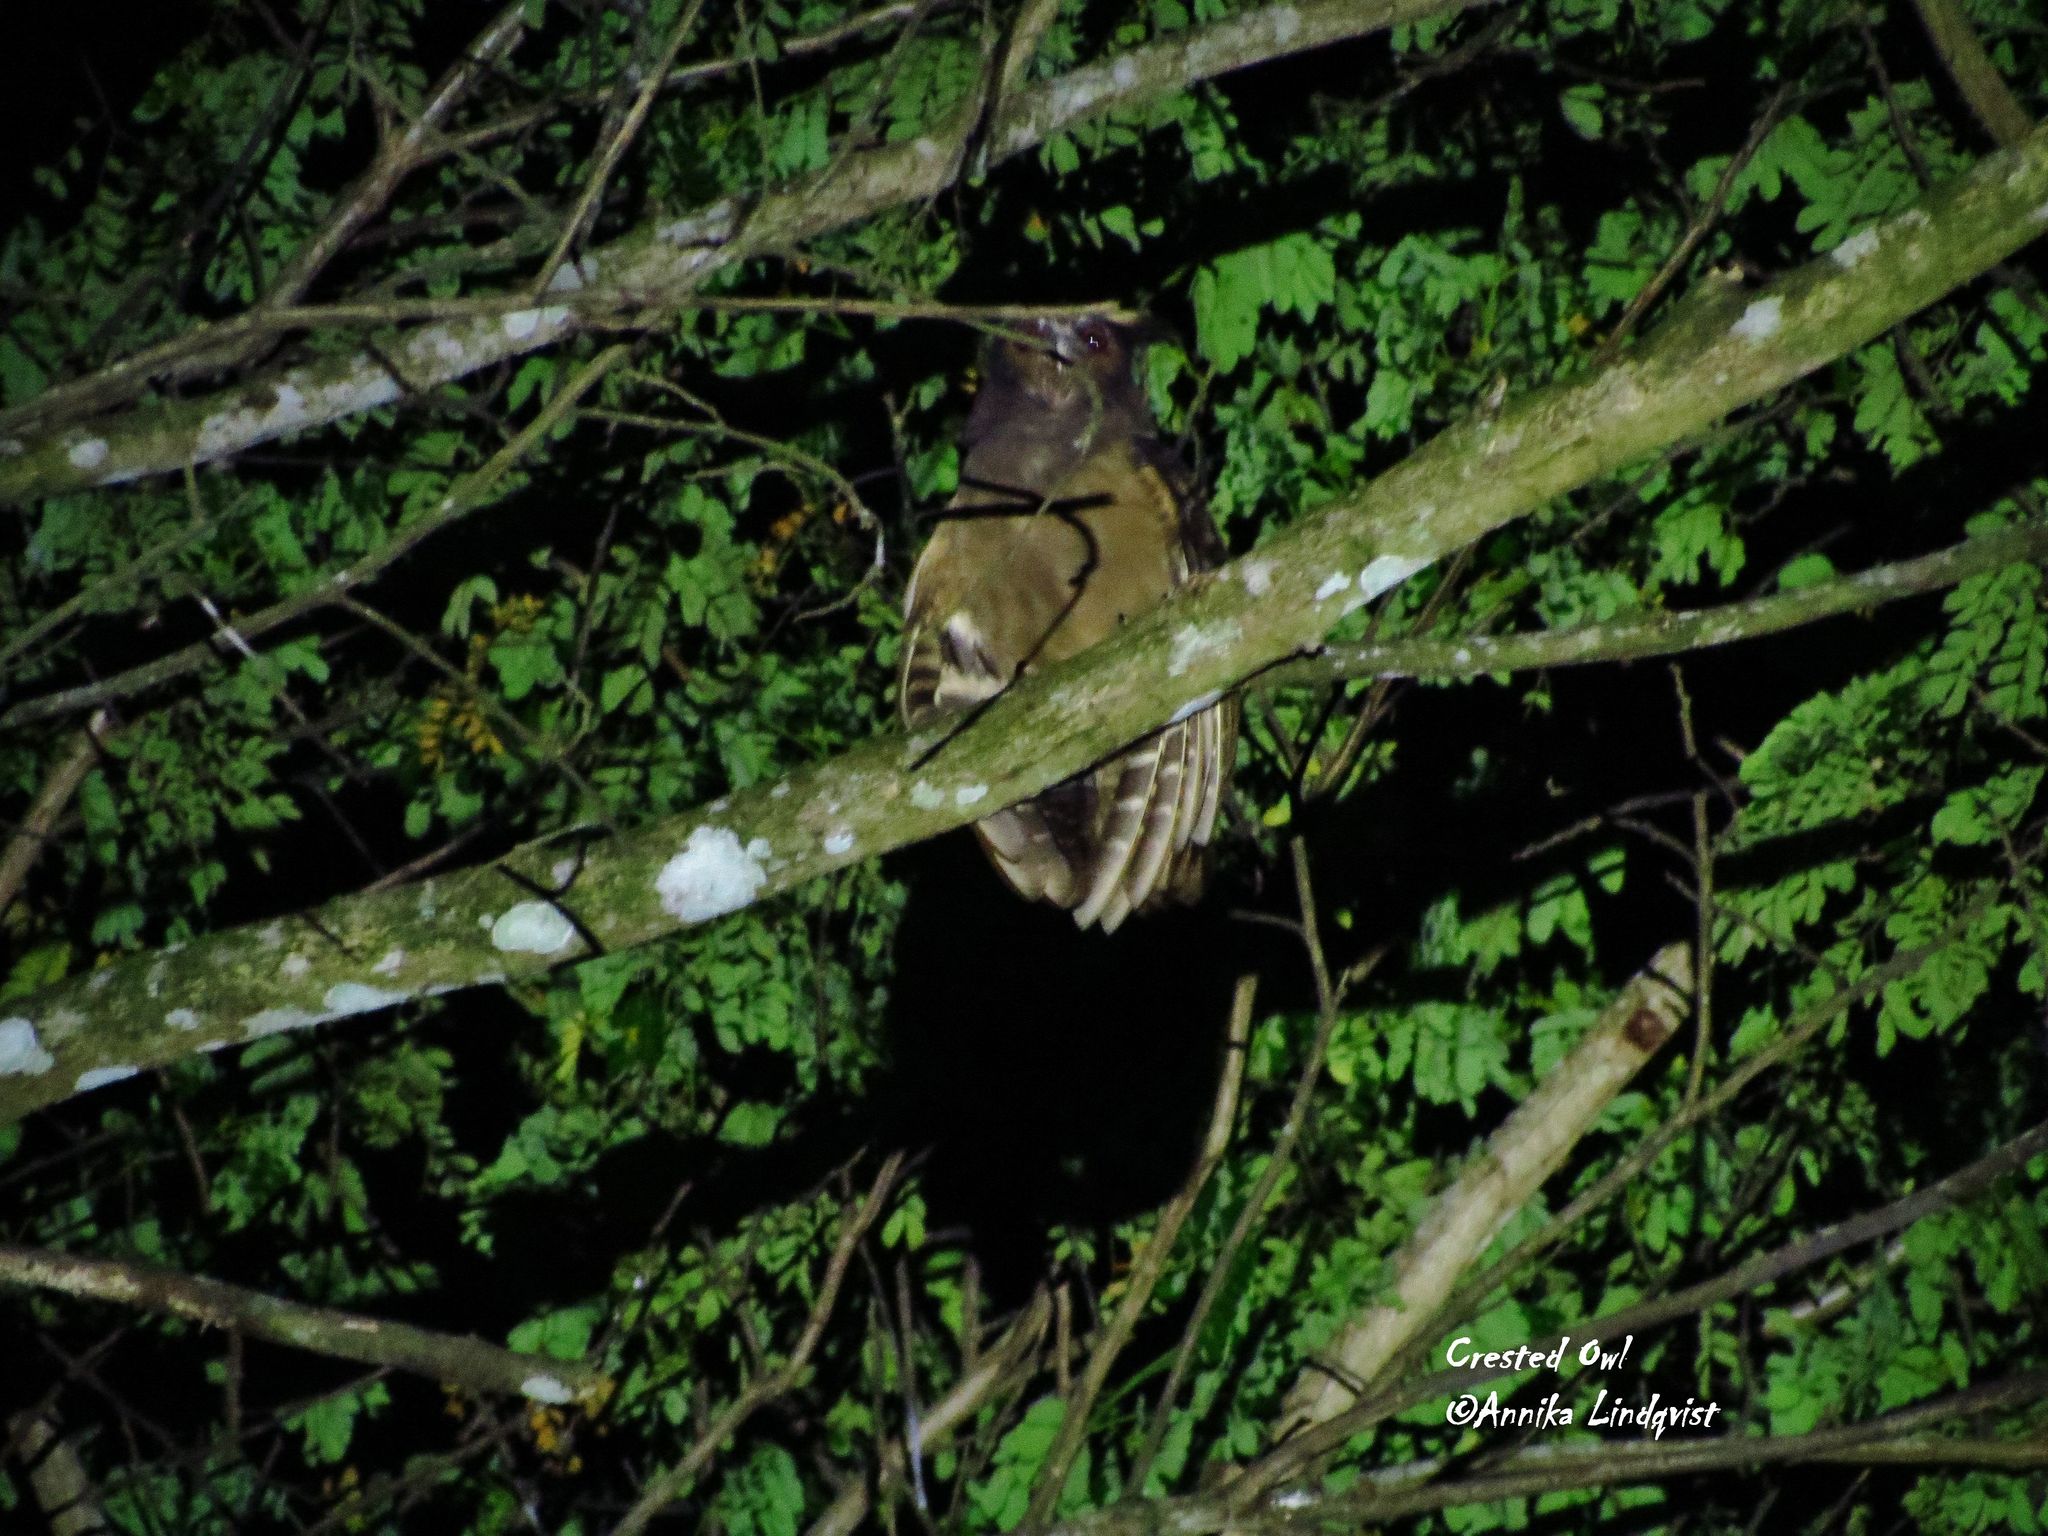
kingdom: Animalia
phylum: Chordata
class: Aves
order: Strigiformes
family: Strigidae
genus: Lophostrix
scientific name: Lophostrix cristata
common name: Crested owl
